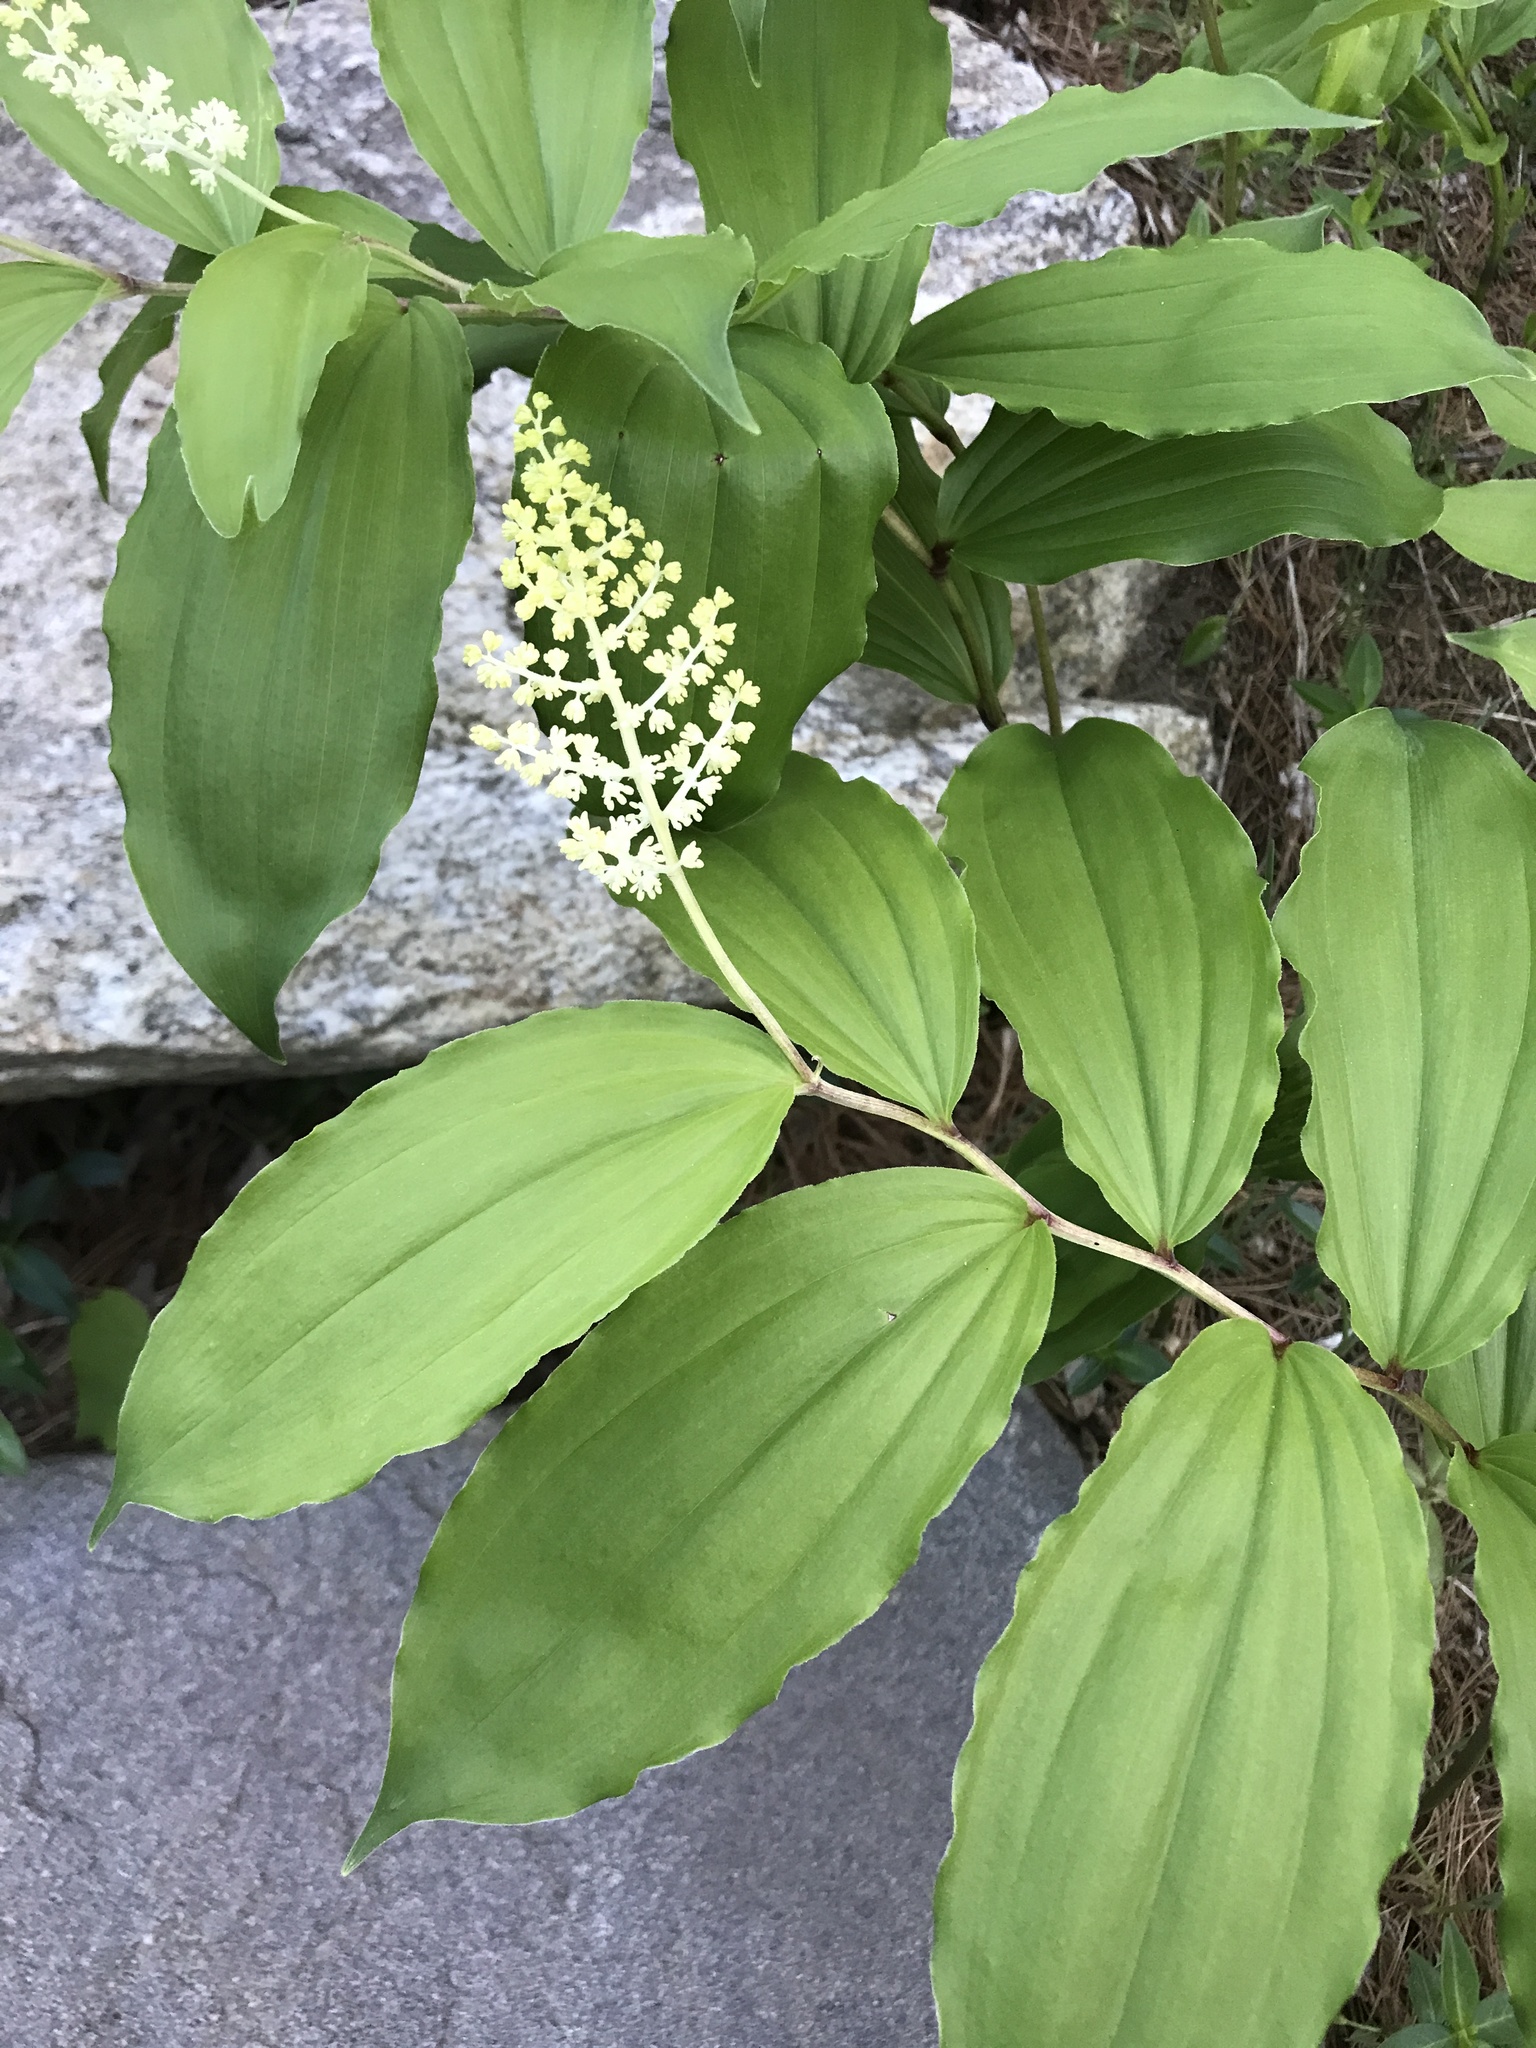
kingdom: Plantae
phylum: Tracheophyta
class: Liliopsida
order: Asparagales
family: Asparagaceae
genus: Maianthemum
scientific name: Maianthemum racemosum
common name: False spikenard
